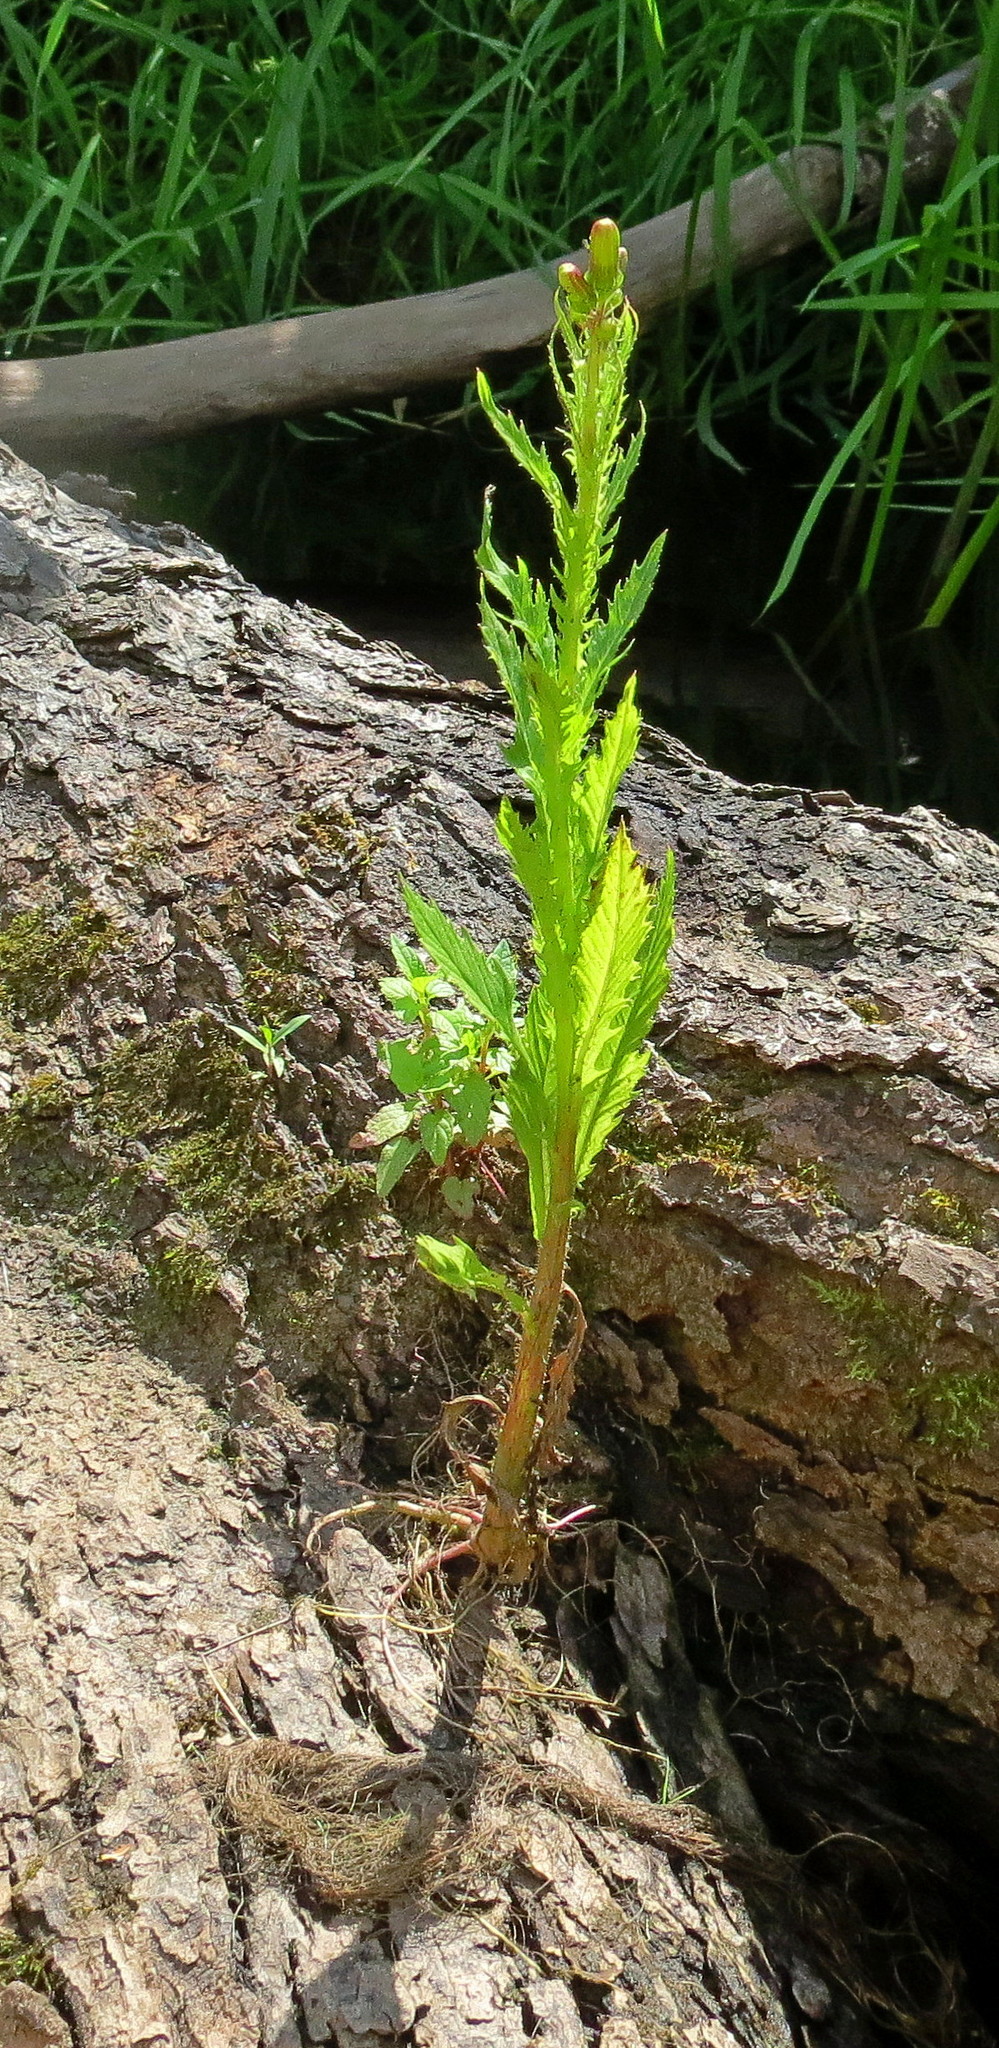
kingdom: Plantae
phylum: Tracheophyta
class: Magnoliopsida
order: Asterales
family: Asteraceae
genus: Erechtites
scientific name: Erechtites hieraciifolius
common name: American burnweed
